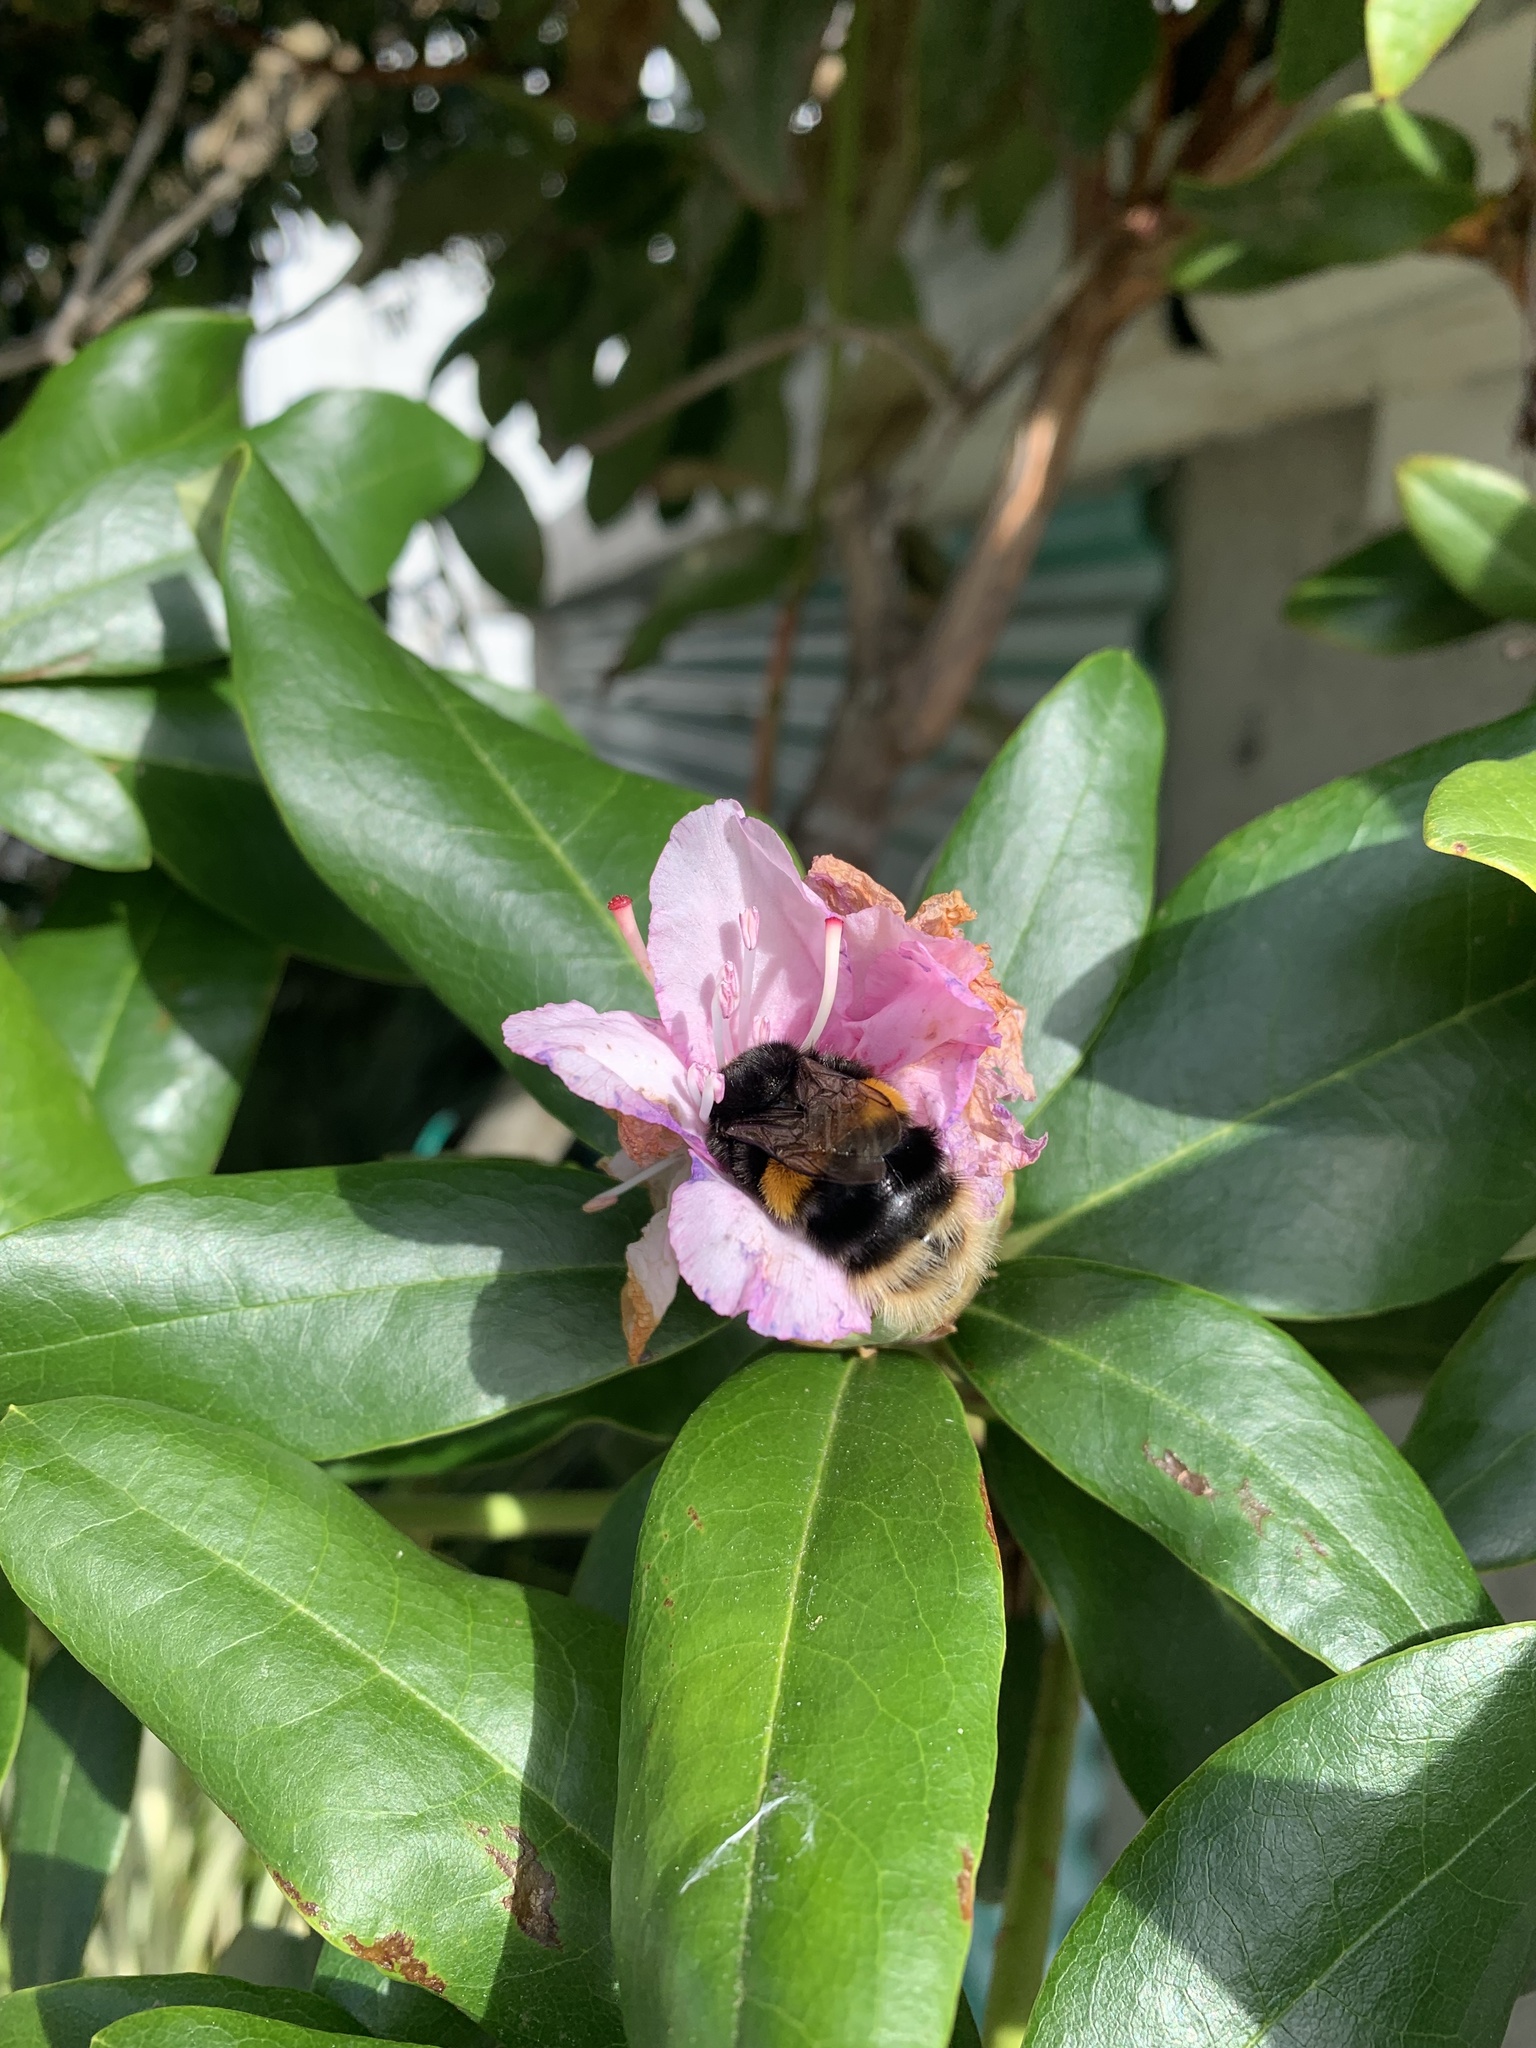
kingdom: Animalia
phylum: Arthropoda
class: Insecta
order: Hymenoptera
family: Apidae
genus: Bombus
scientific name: Bombus terrestris
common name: Buff-tailed bumblebee
